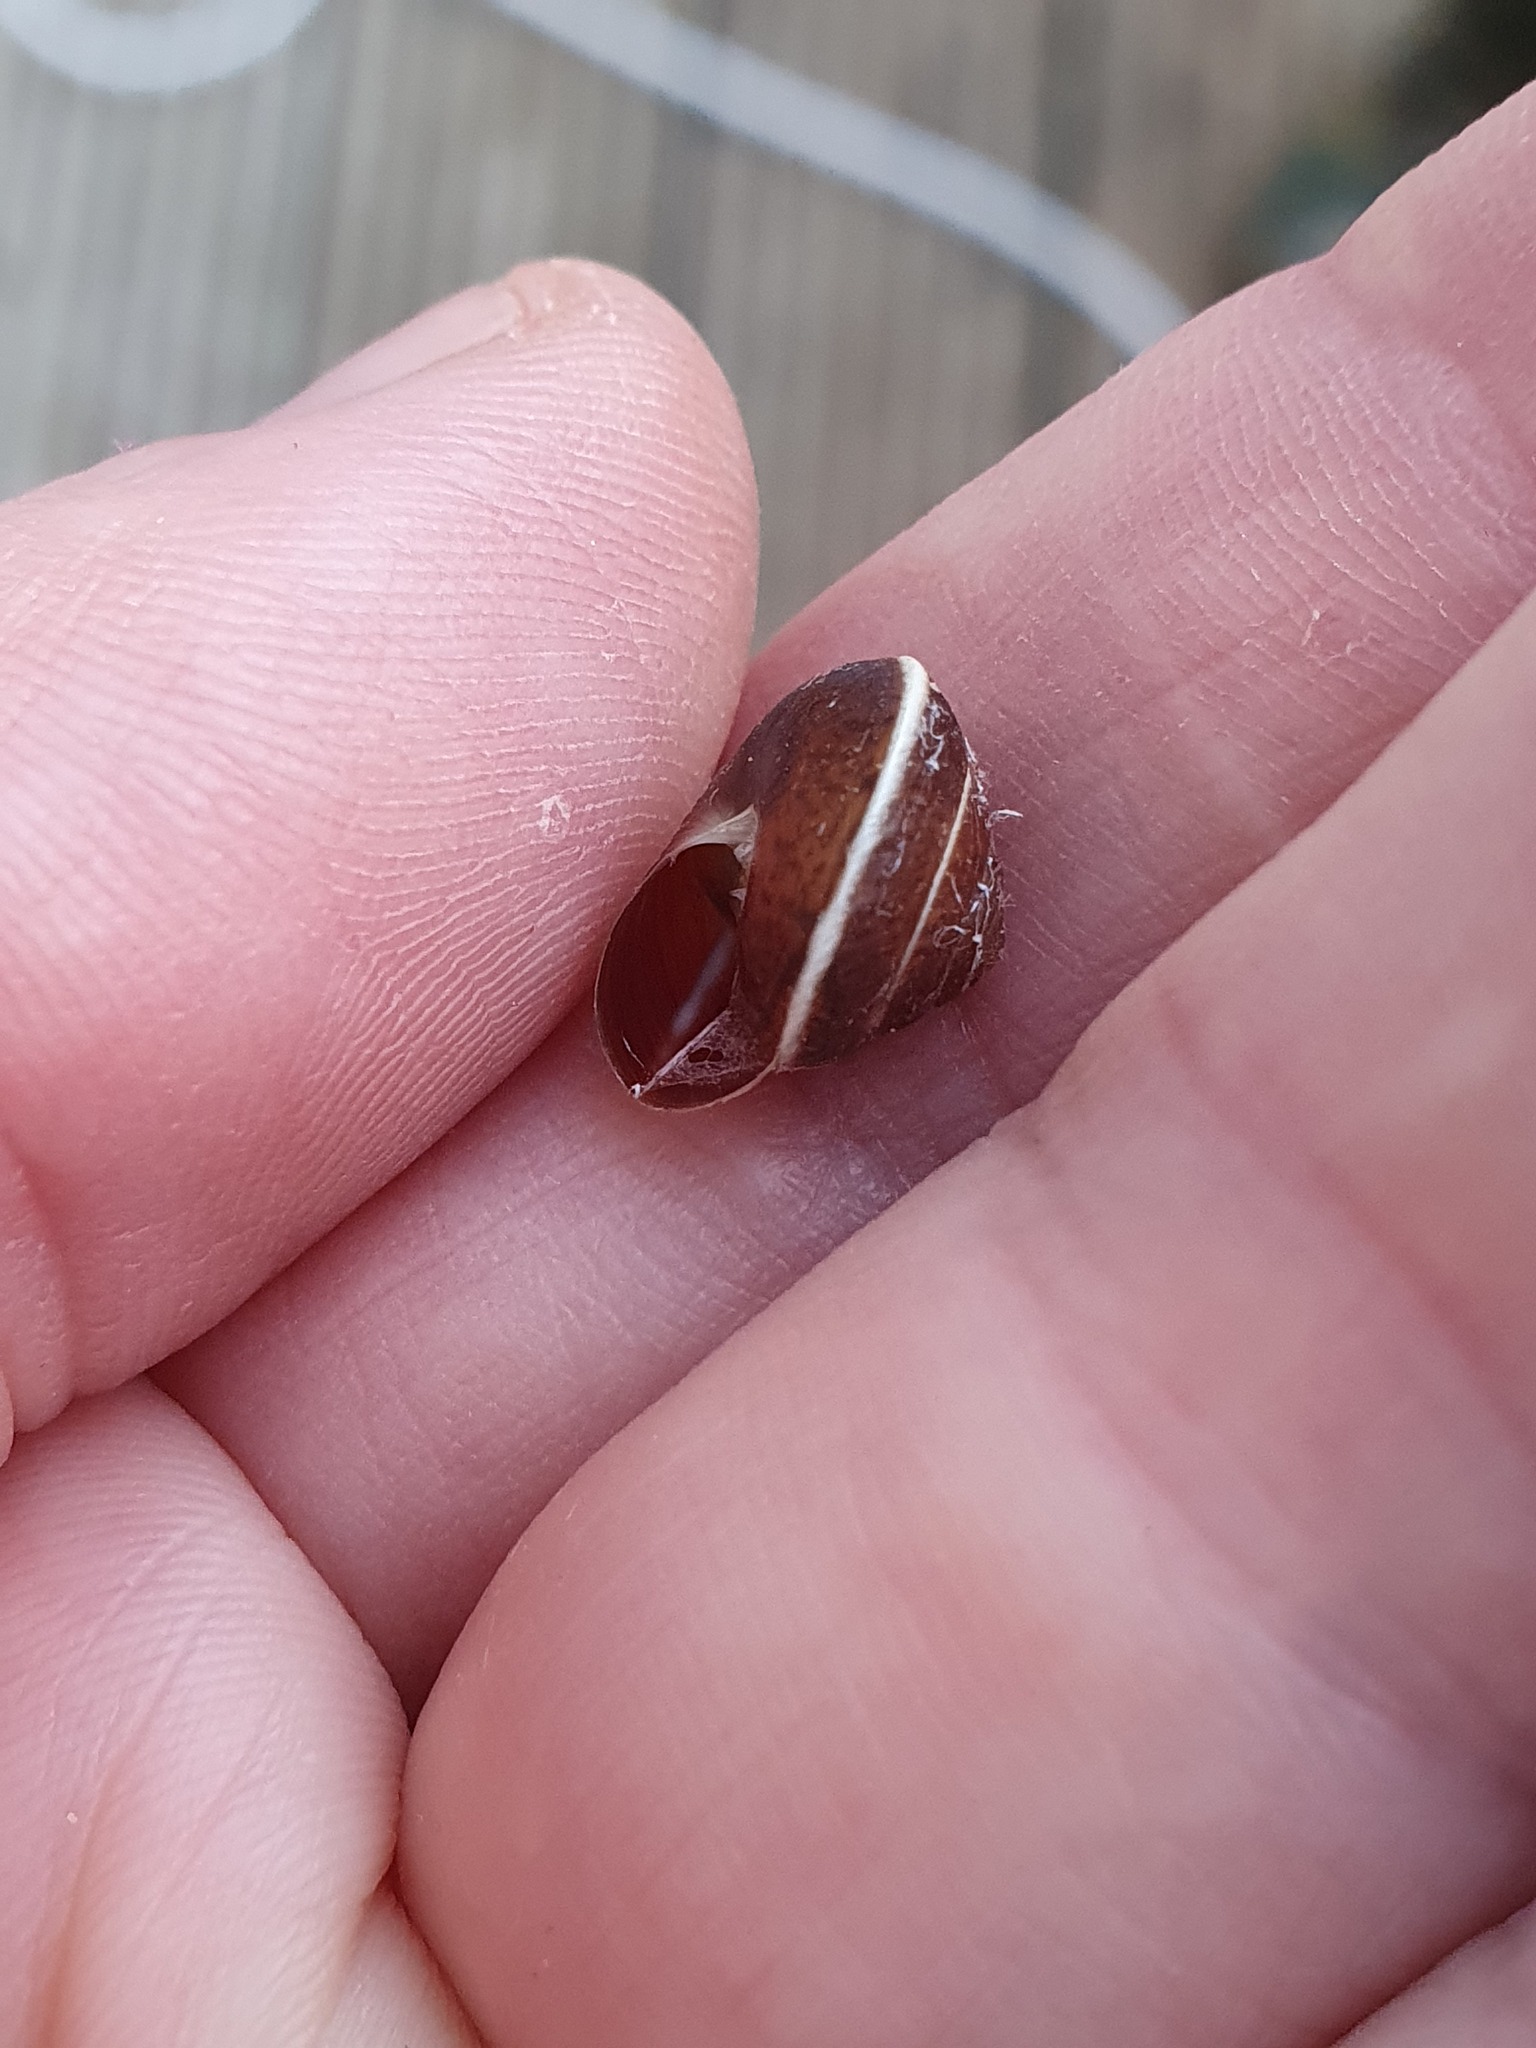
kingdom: Animalia
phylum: Mollusca
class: Gastropoda
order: Stylommatophora
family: Hygromiidae
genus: Hygromia
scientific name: Hygromia cinctella
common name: Girdled snail
